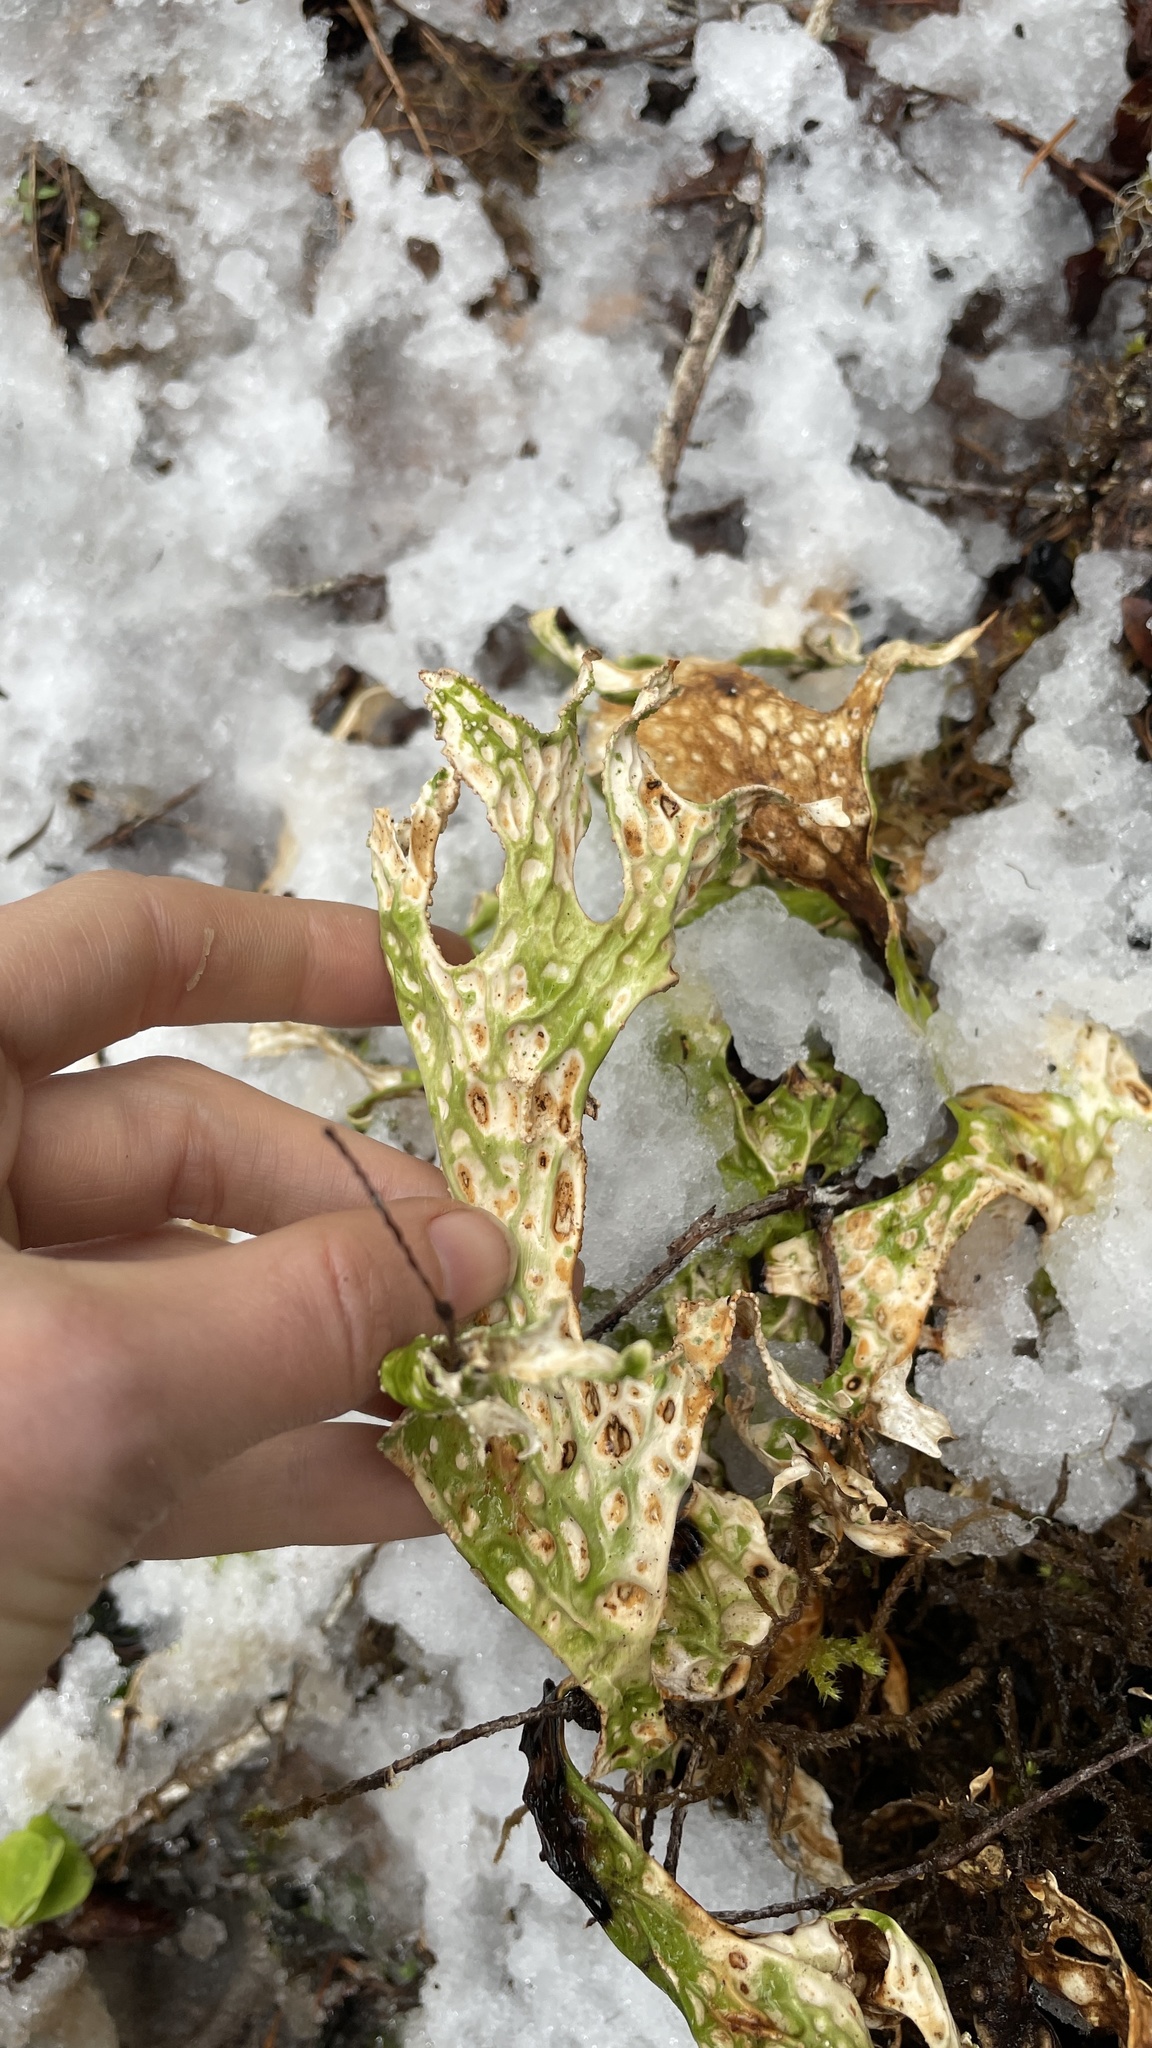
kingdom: Fungi
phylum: Ascomycota
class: Lecanoromycetes
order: Peltigerales
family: Lobariaceae
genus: Lobaria
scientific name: Lobaria pulmonaria
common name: Lungwort
